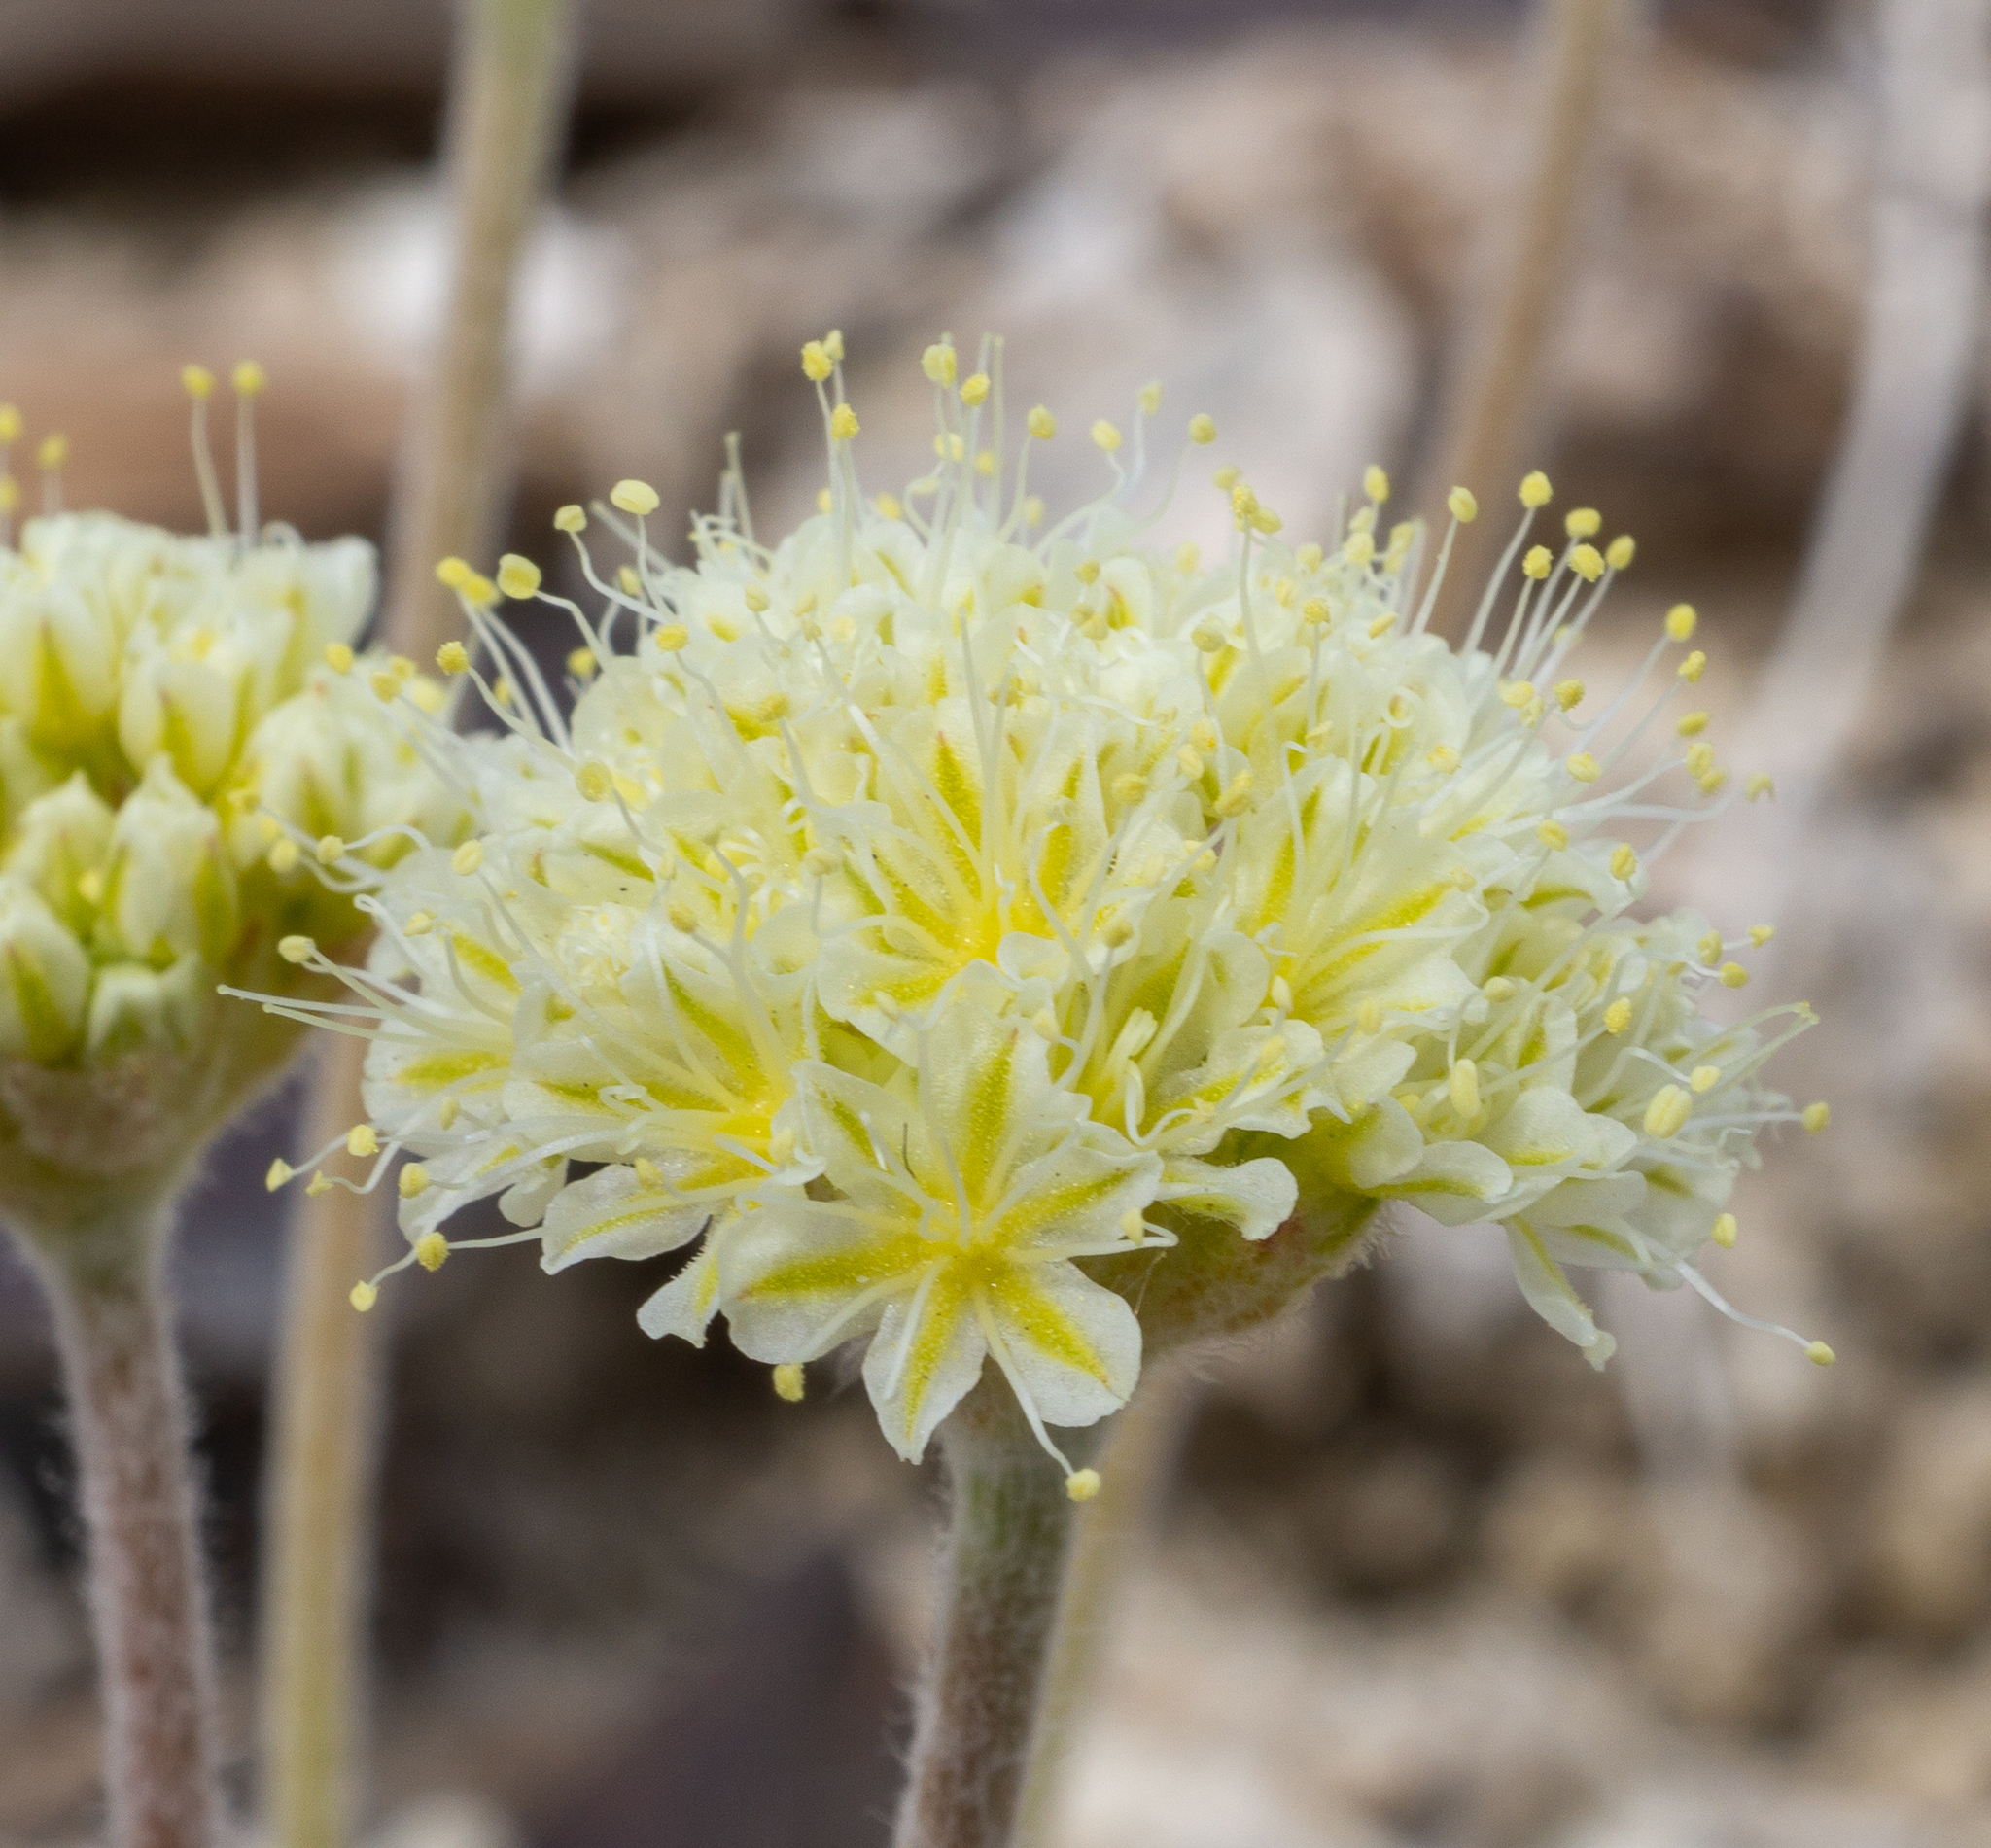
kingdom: Plantae
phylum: Tracheophyta
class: Magnoliopsida
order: Caryophyllales
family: Polygonaceae
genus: Eriogonum
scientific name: Eriogonum tiehmii
